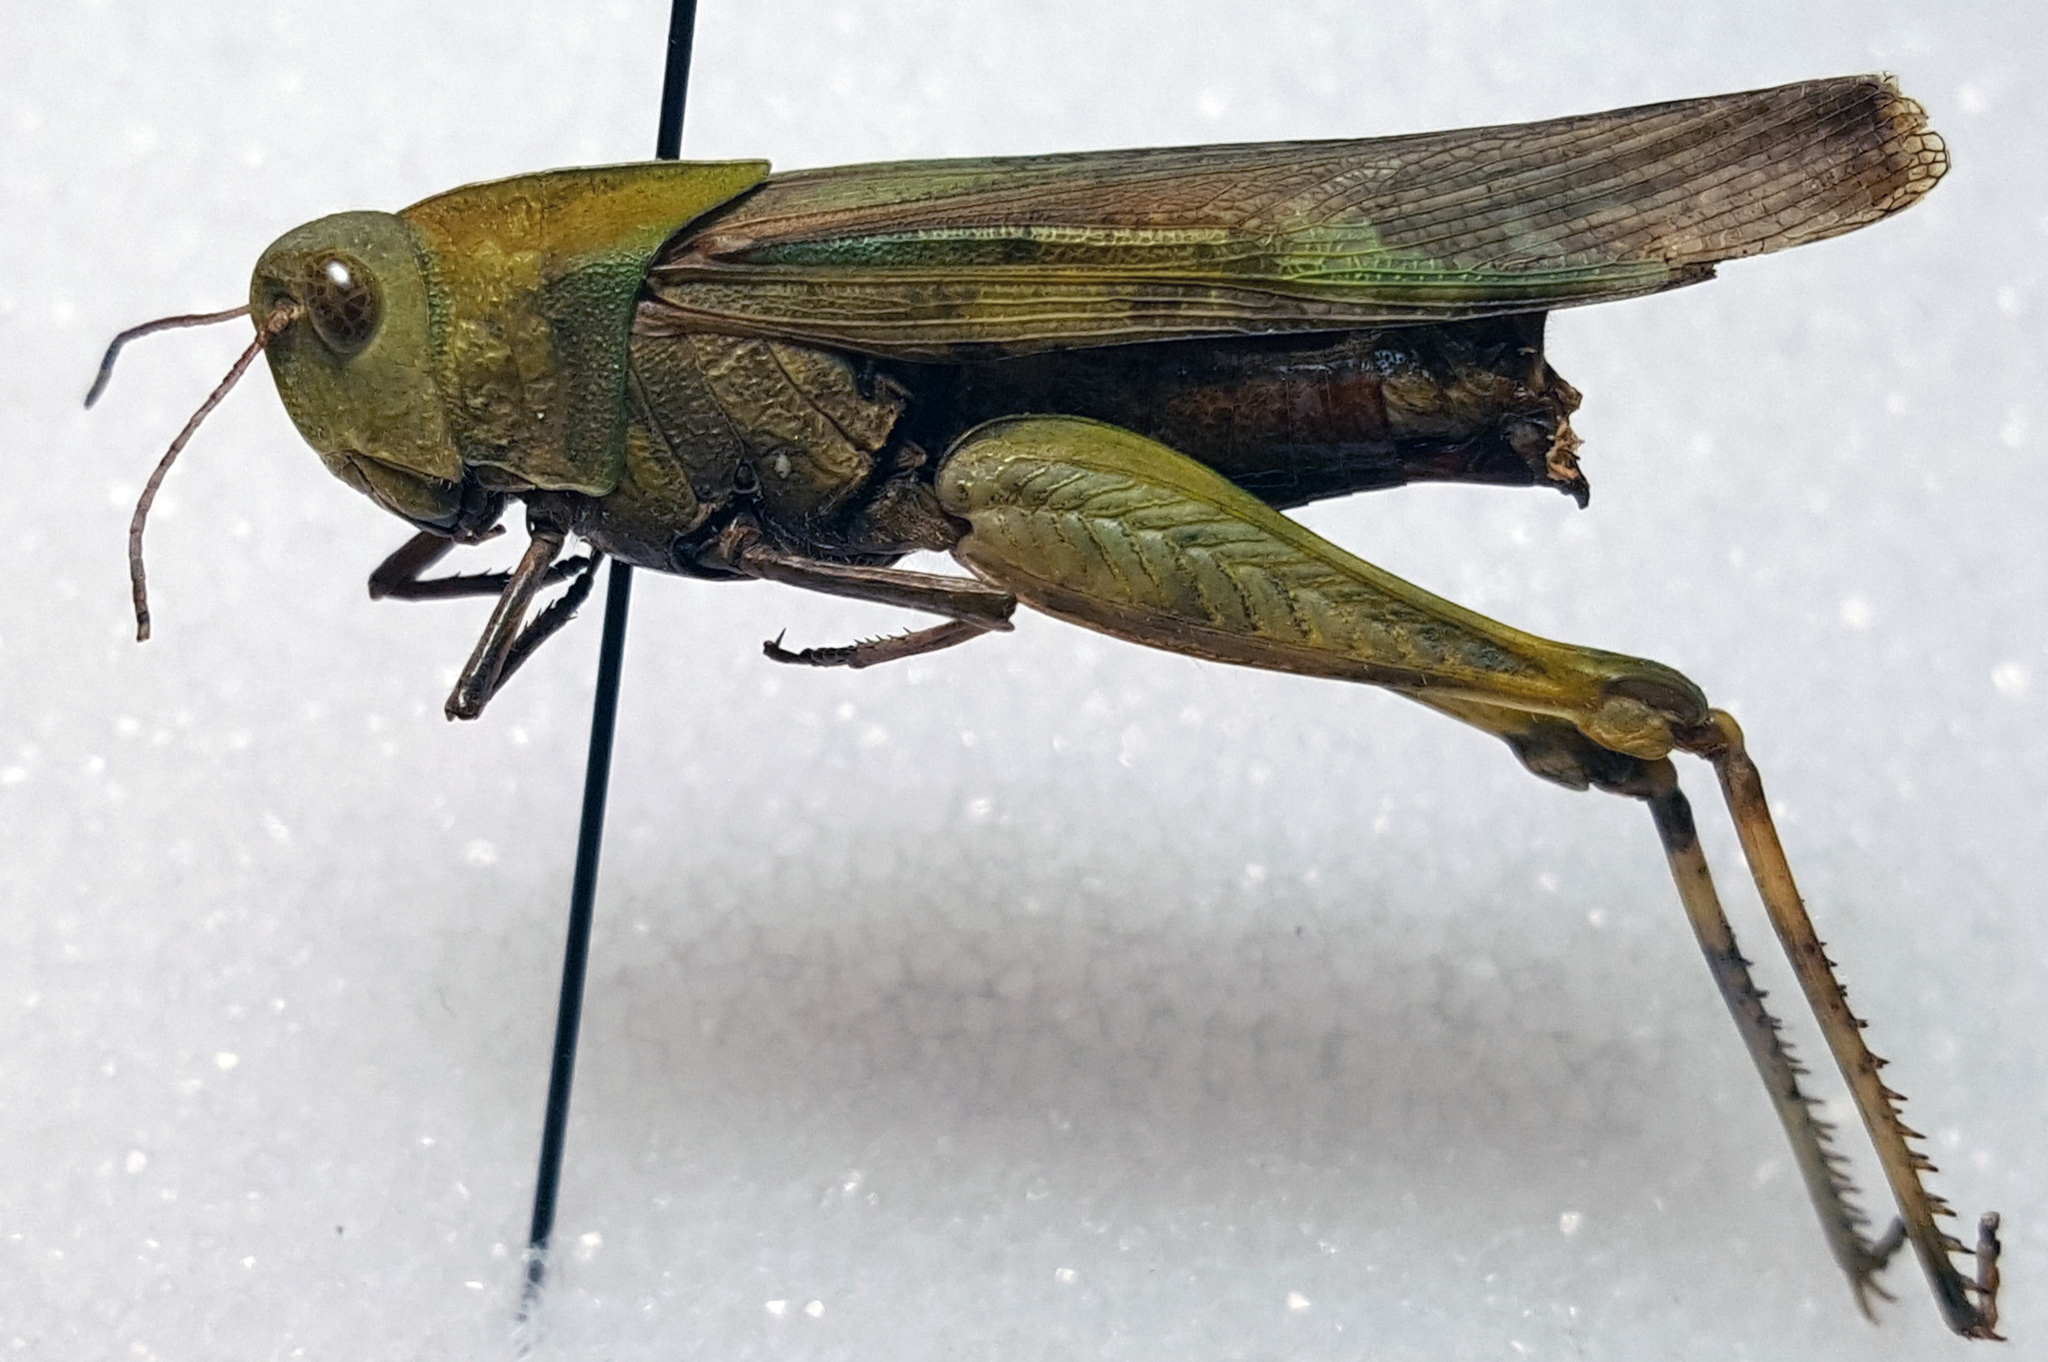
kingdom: Animalia
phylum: Arthropoda
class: Insecta
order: Orthoptera
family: Acrididae
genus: Chortophaga
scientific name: Chortophaga viridifasciata
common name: Green-striped grasshopper
